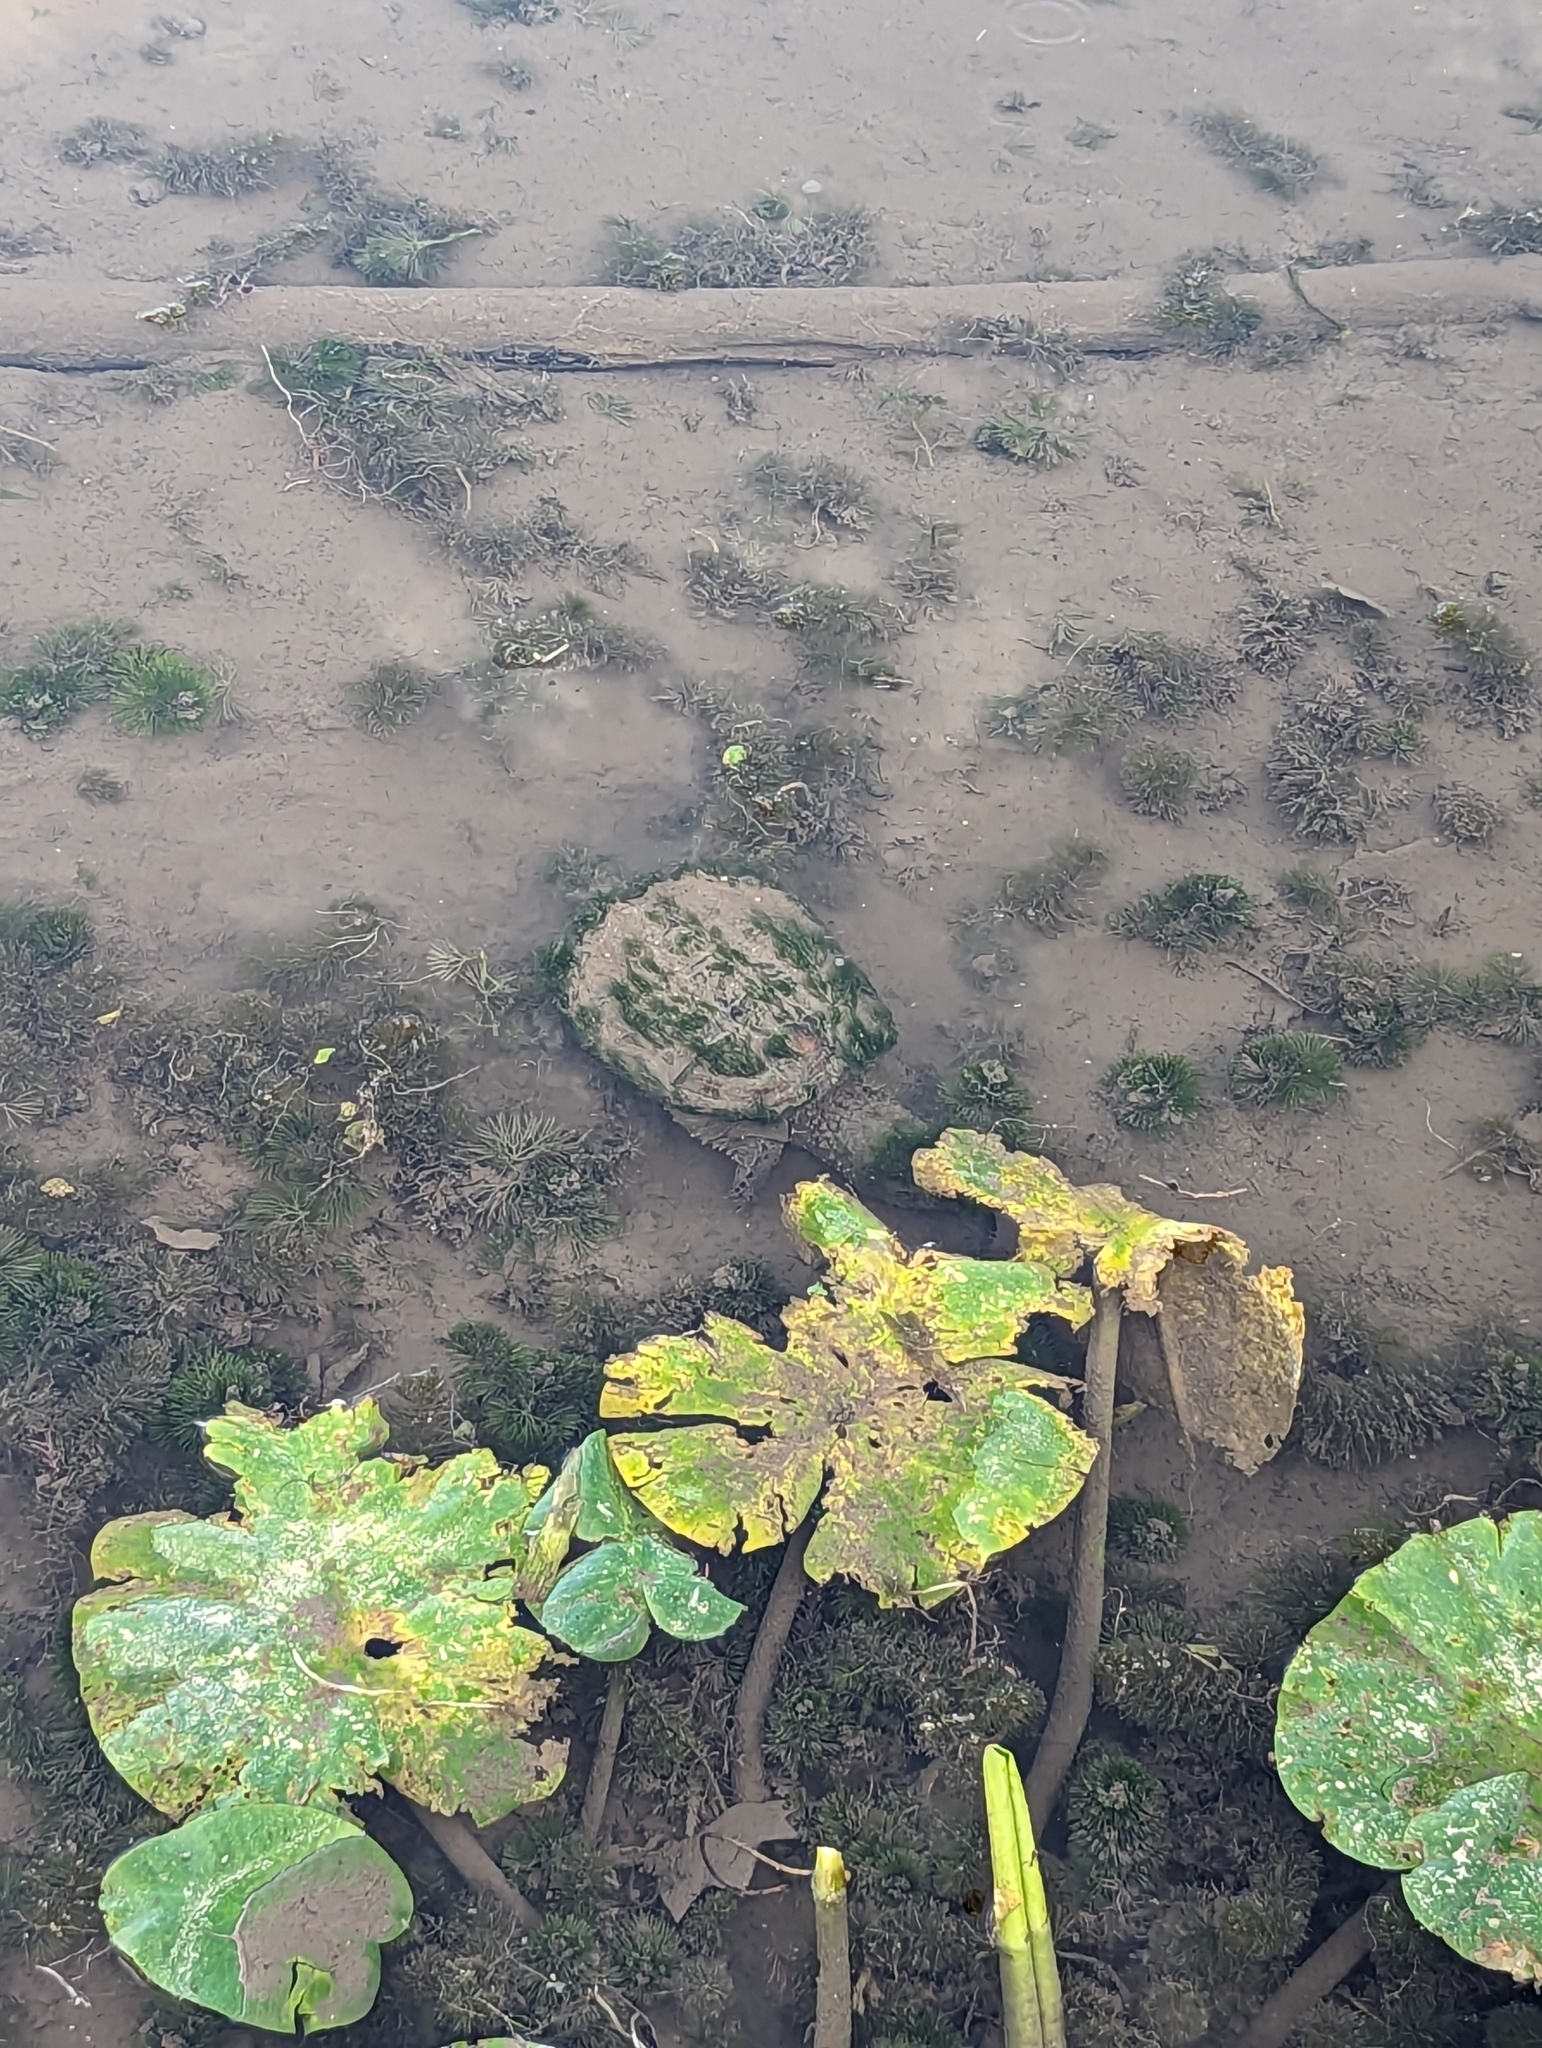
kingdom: Animalia
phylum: Chordata
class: Testudines
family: Chelydridae
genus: Chelydra
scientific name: Chelydra serpentina
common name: Common snapping turtle
